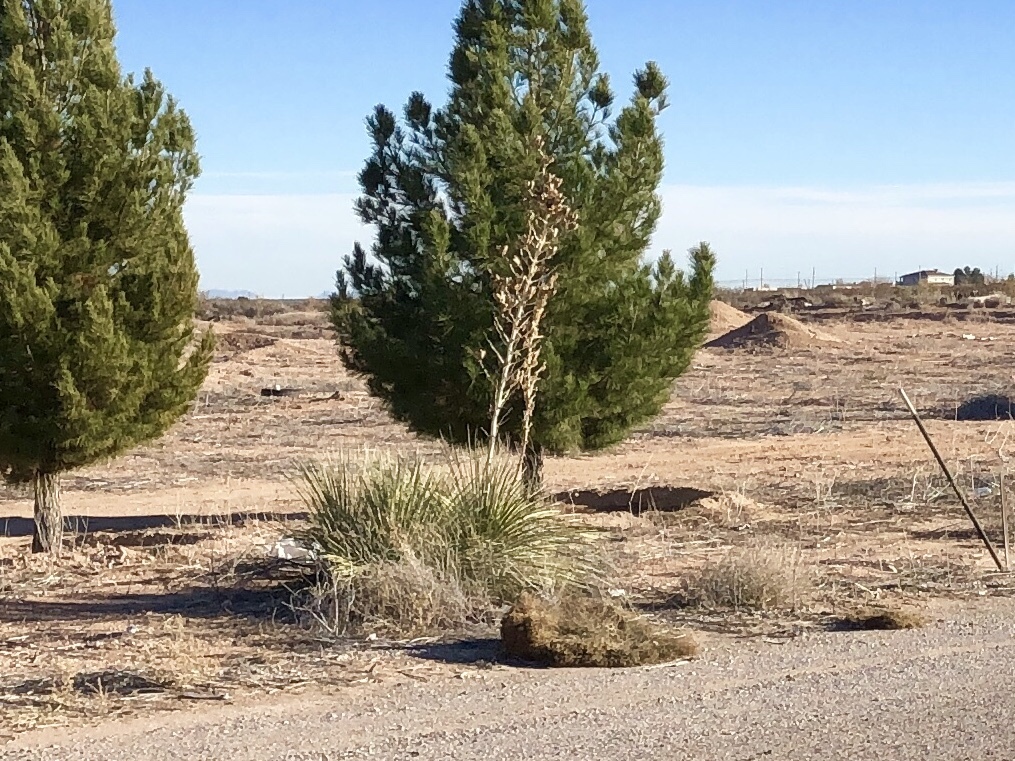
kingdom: Plantae
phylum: Tracheophyta
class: Liliopsida
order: Asparagales
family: Asparagaceae
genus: Yucca
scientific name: Yucca elata
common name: Palmella
